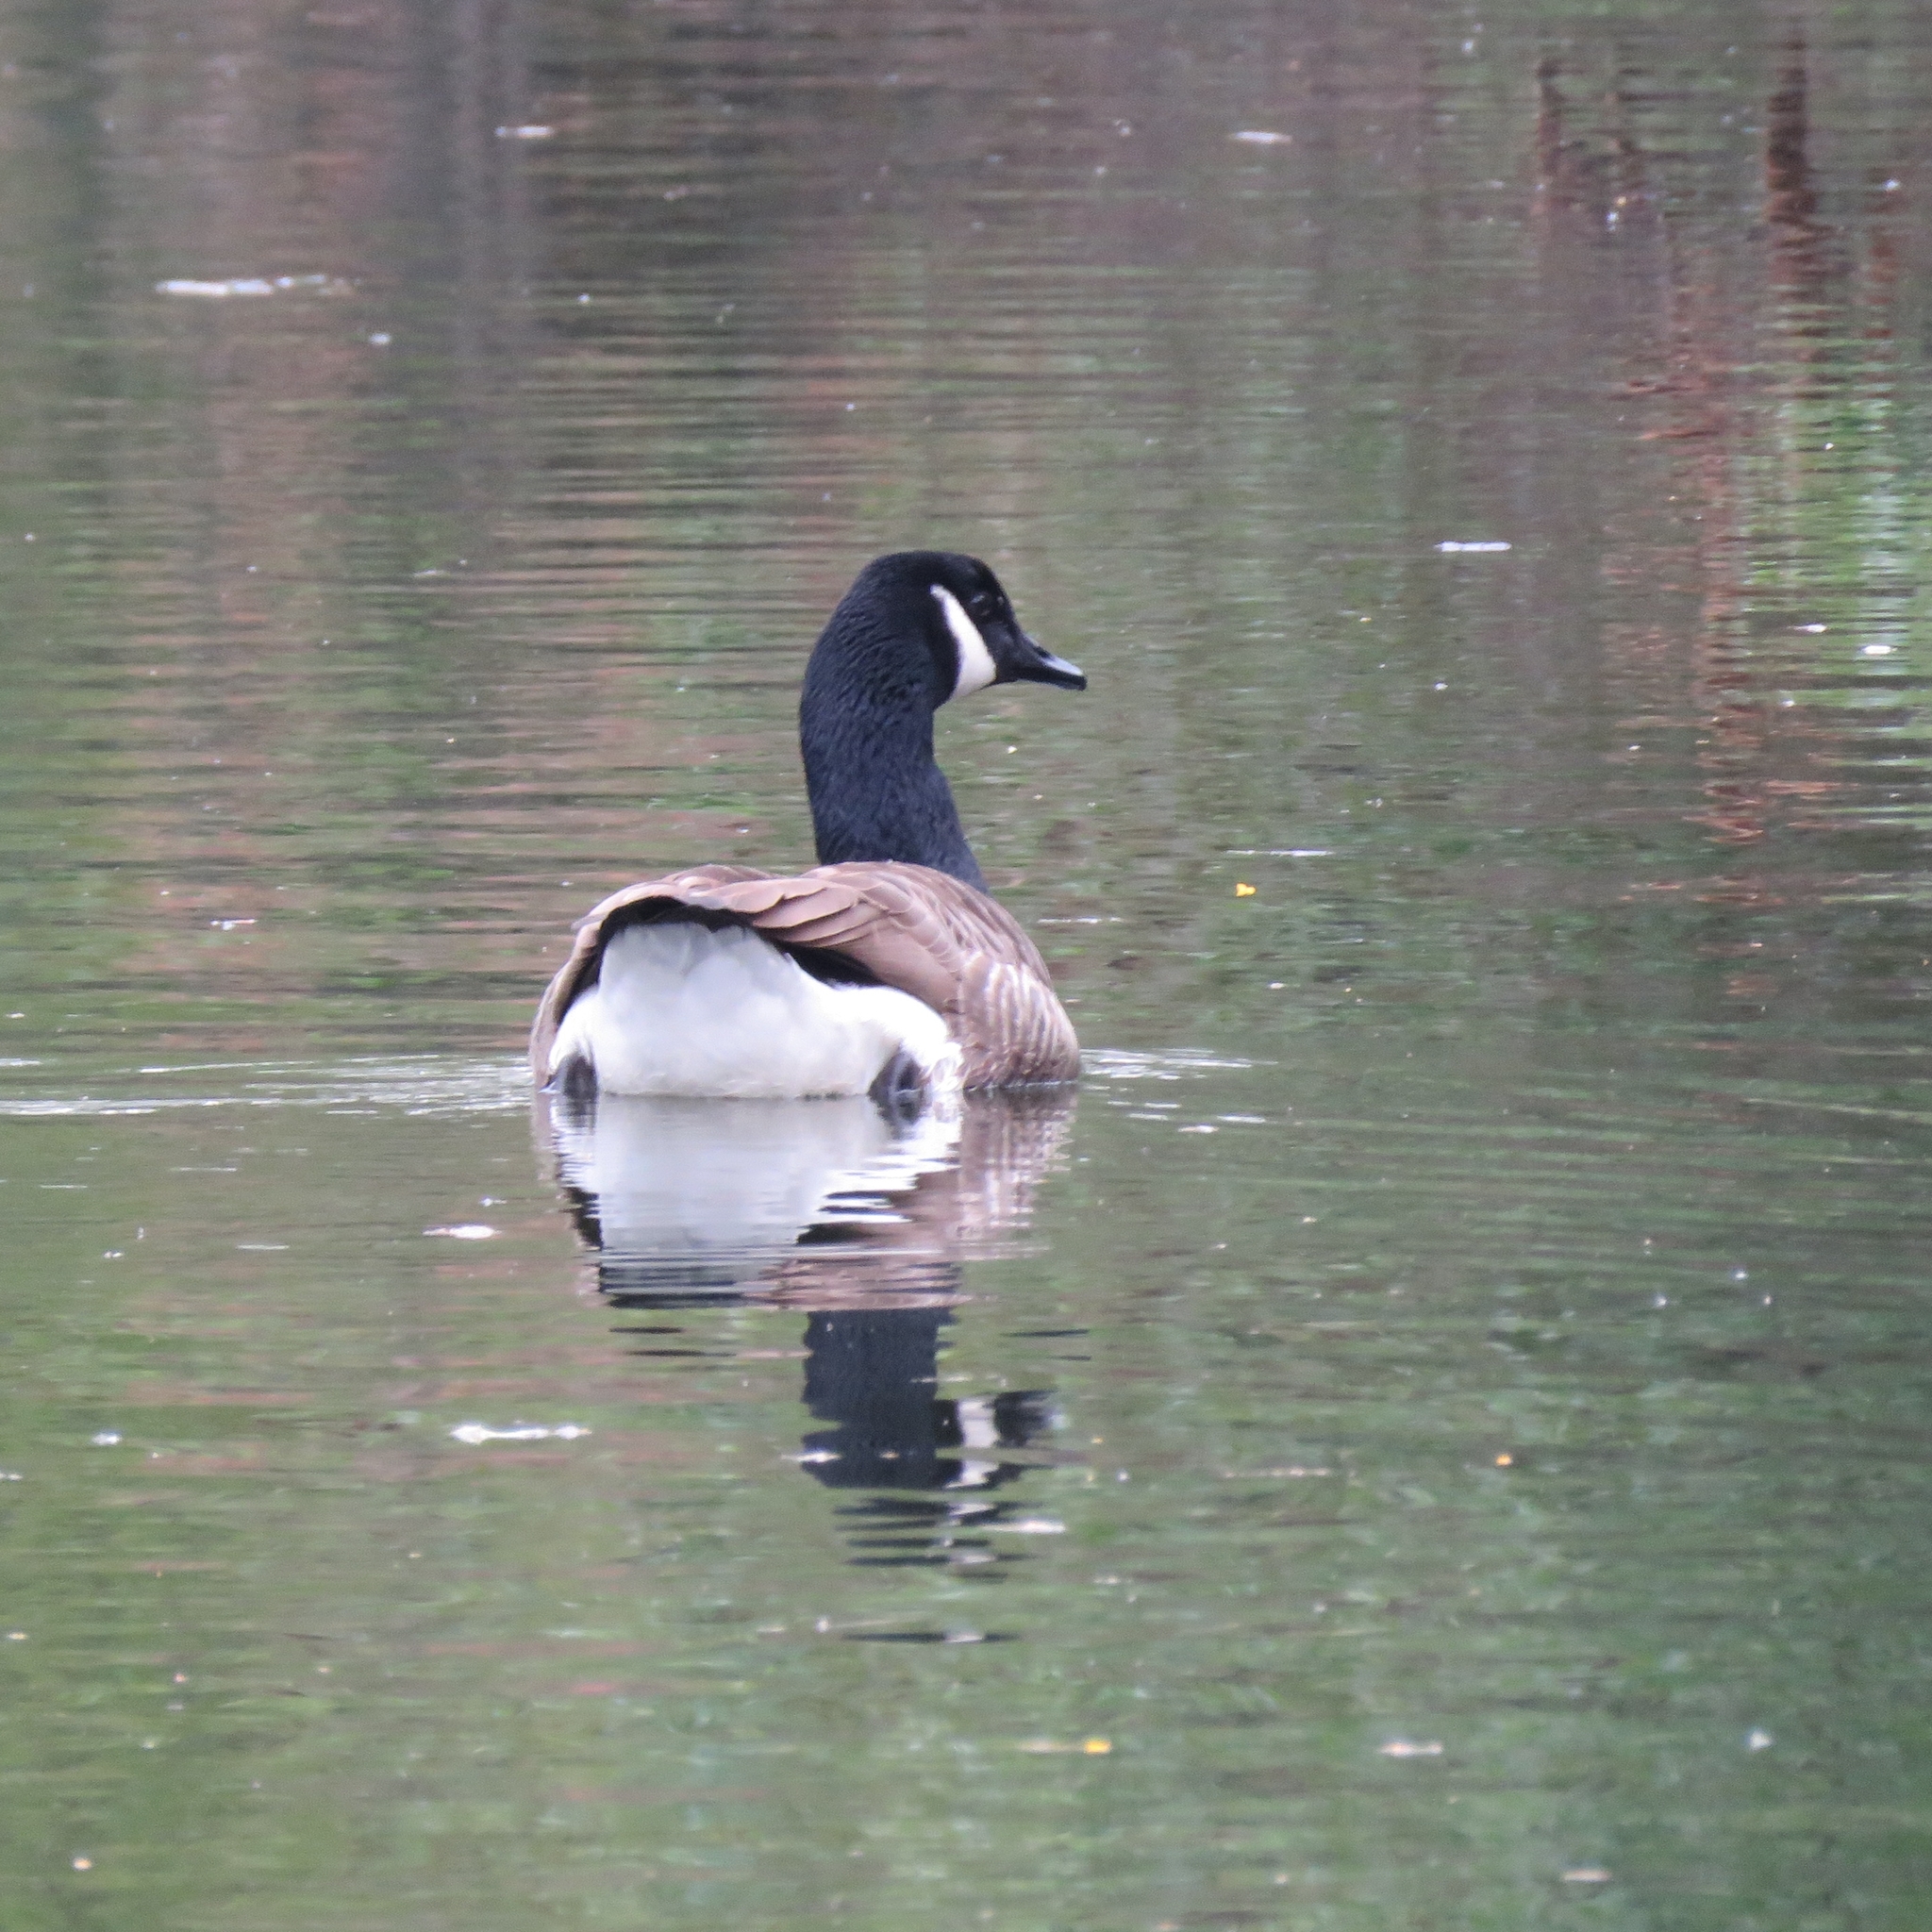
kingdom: Animalia
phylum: Chordata
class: Aves
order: Anseriformes
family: Anatidae
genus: Branta
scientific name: Branta canadensis
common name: Canada goose
